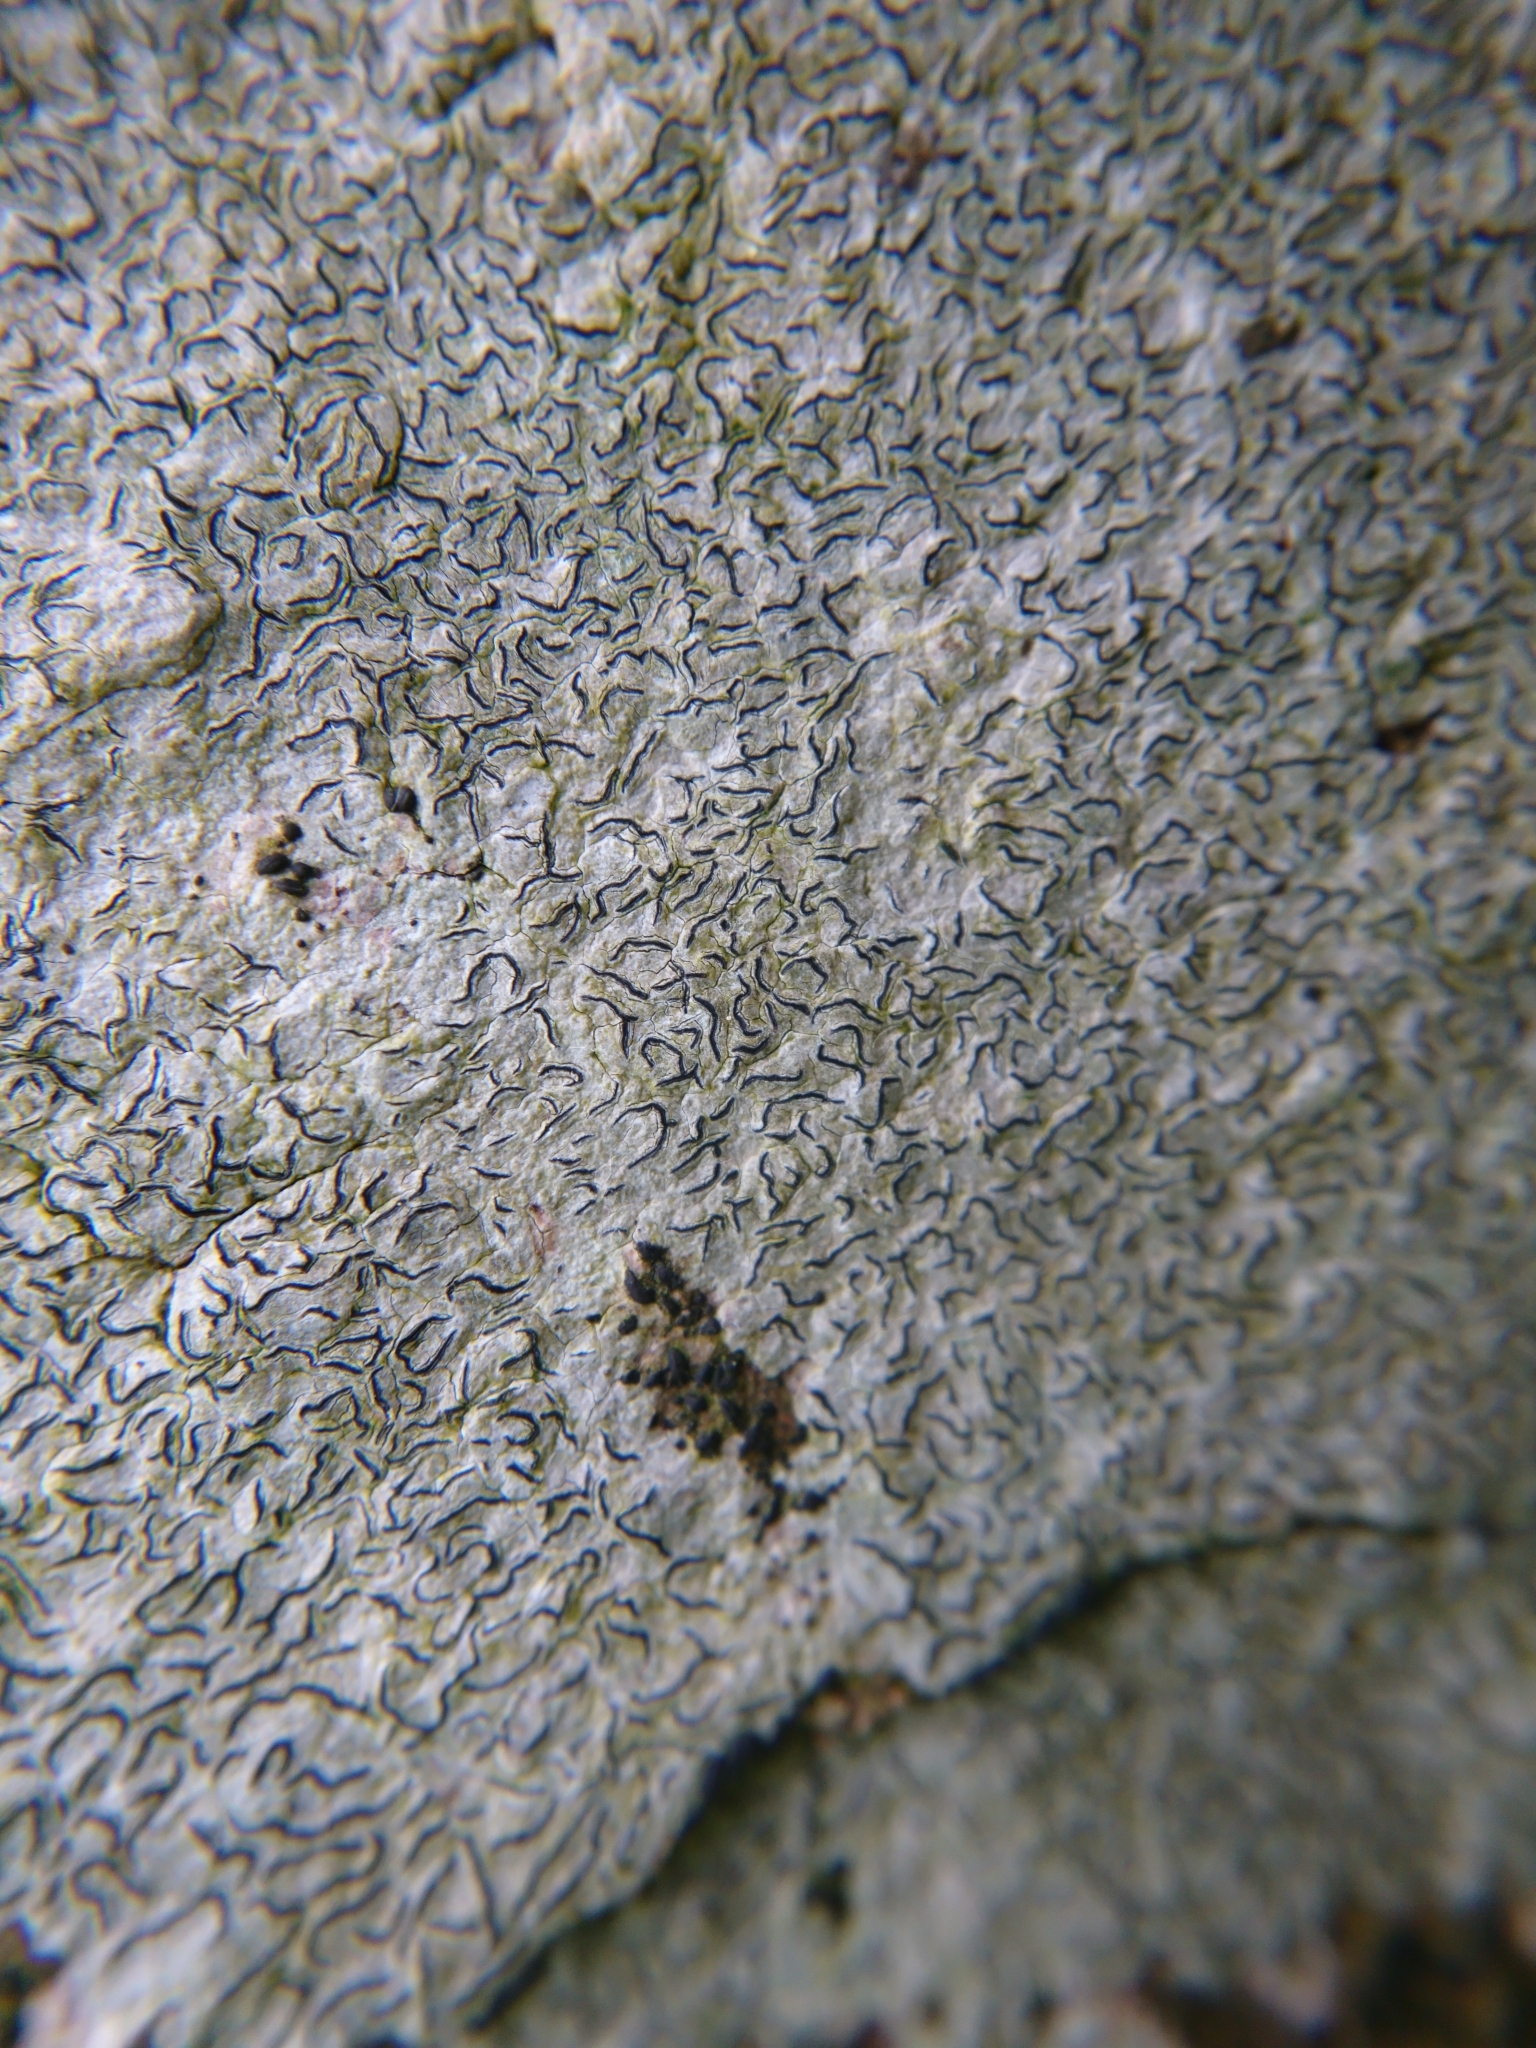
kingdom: Fungi
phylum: Ascomycota
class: Lecanoromycetes
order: Ostropales
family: Graphidaceae
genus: Graphis
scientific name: Graphis scripta
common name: Script lichen
